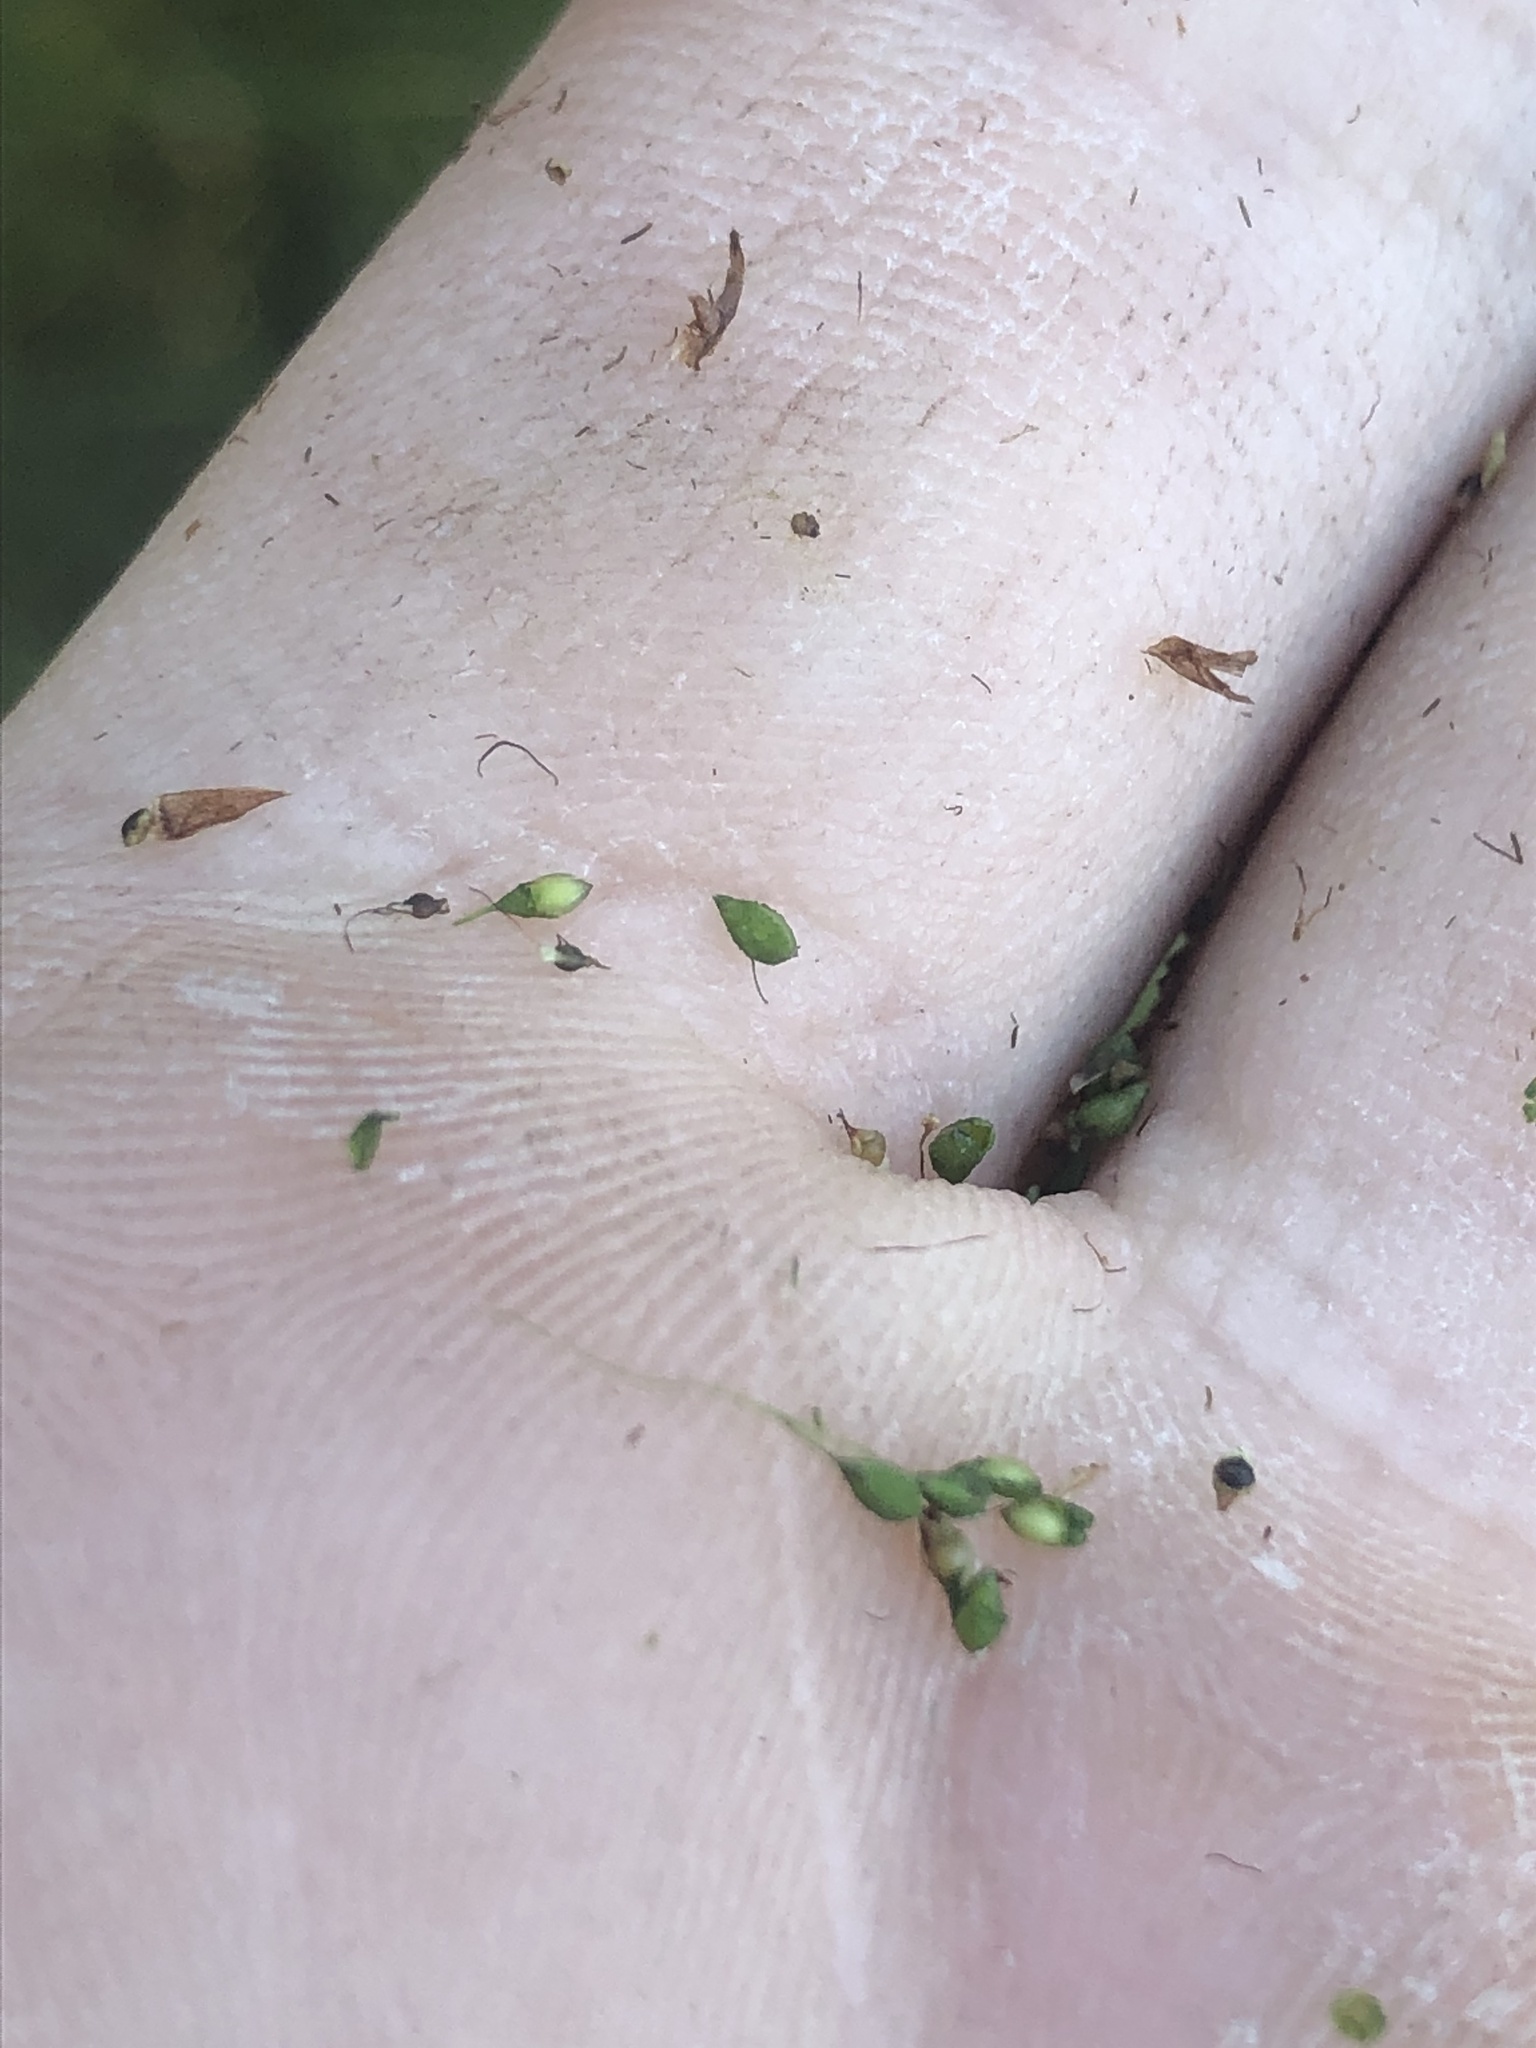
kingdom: Plantae
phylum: Tracheophyta
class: Liliopsida
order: Poales
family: Cyperaceae
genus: Rhynchospora
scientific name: Rhynchospora scirpoides
